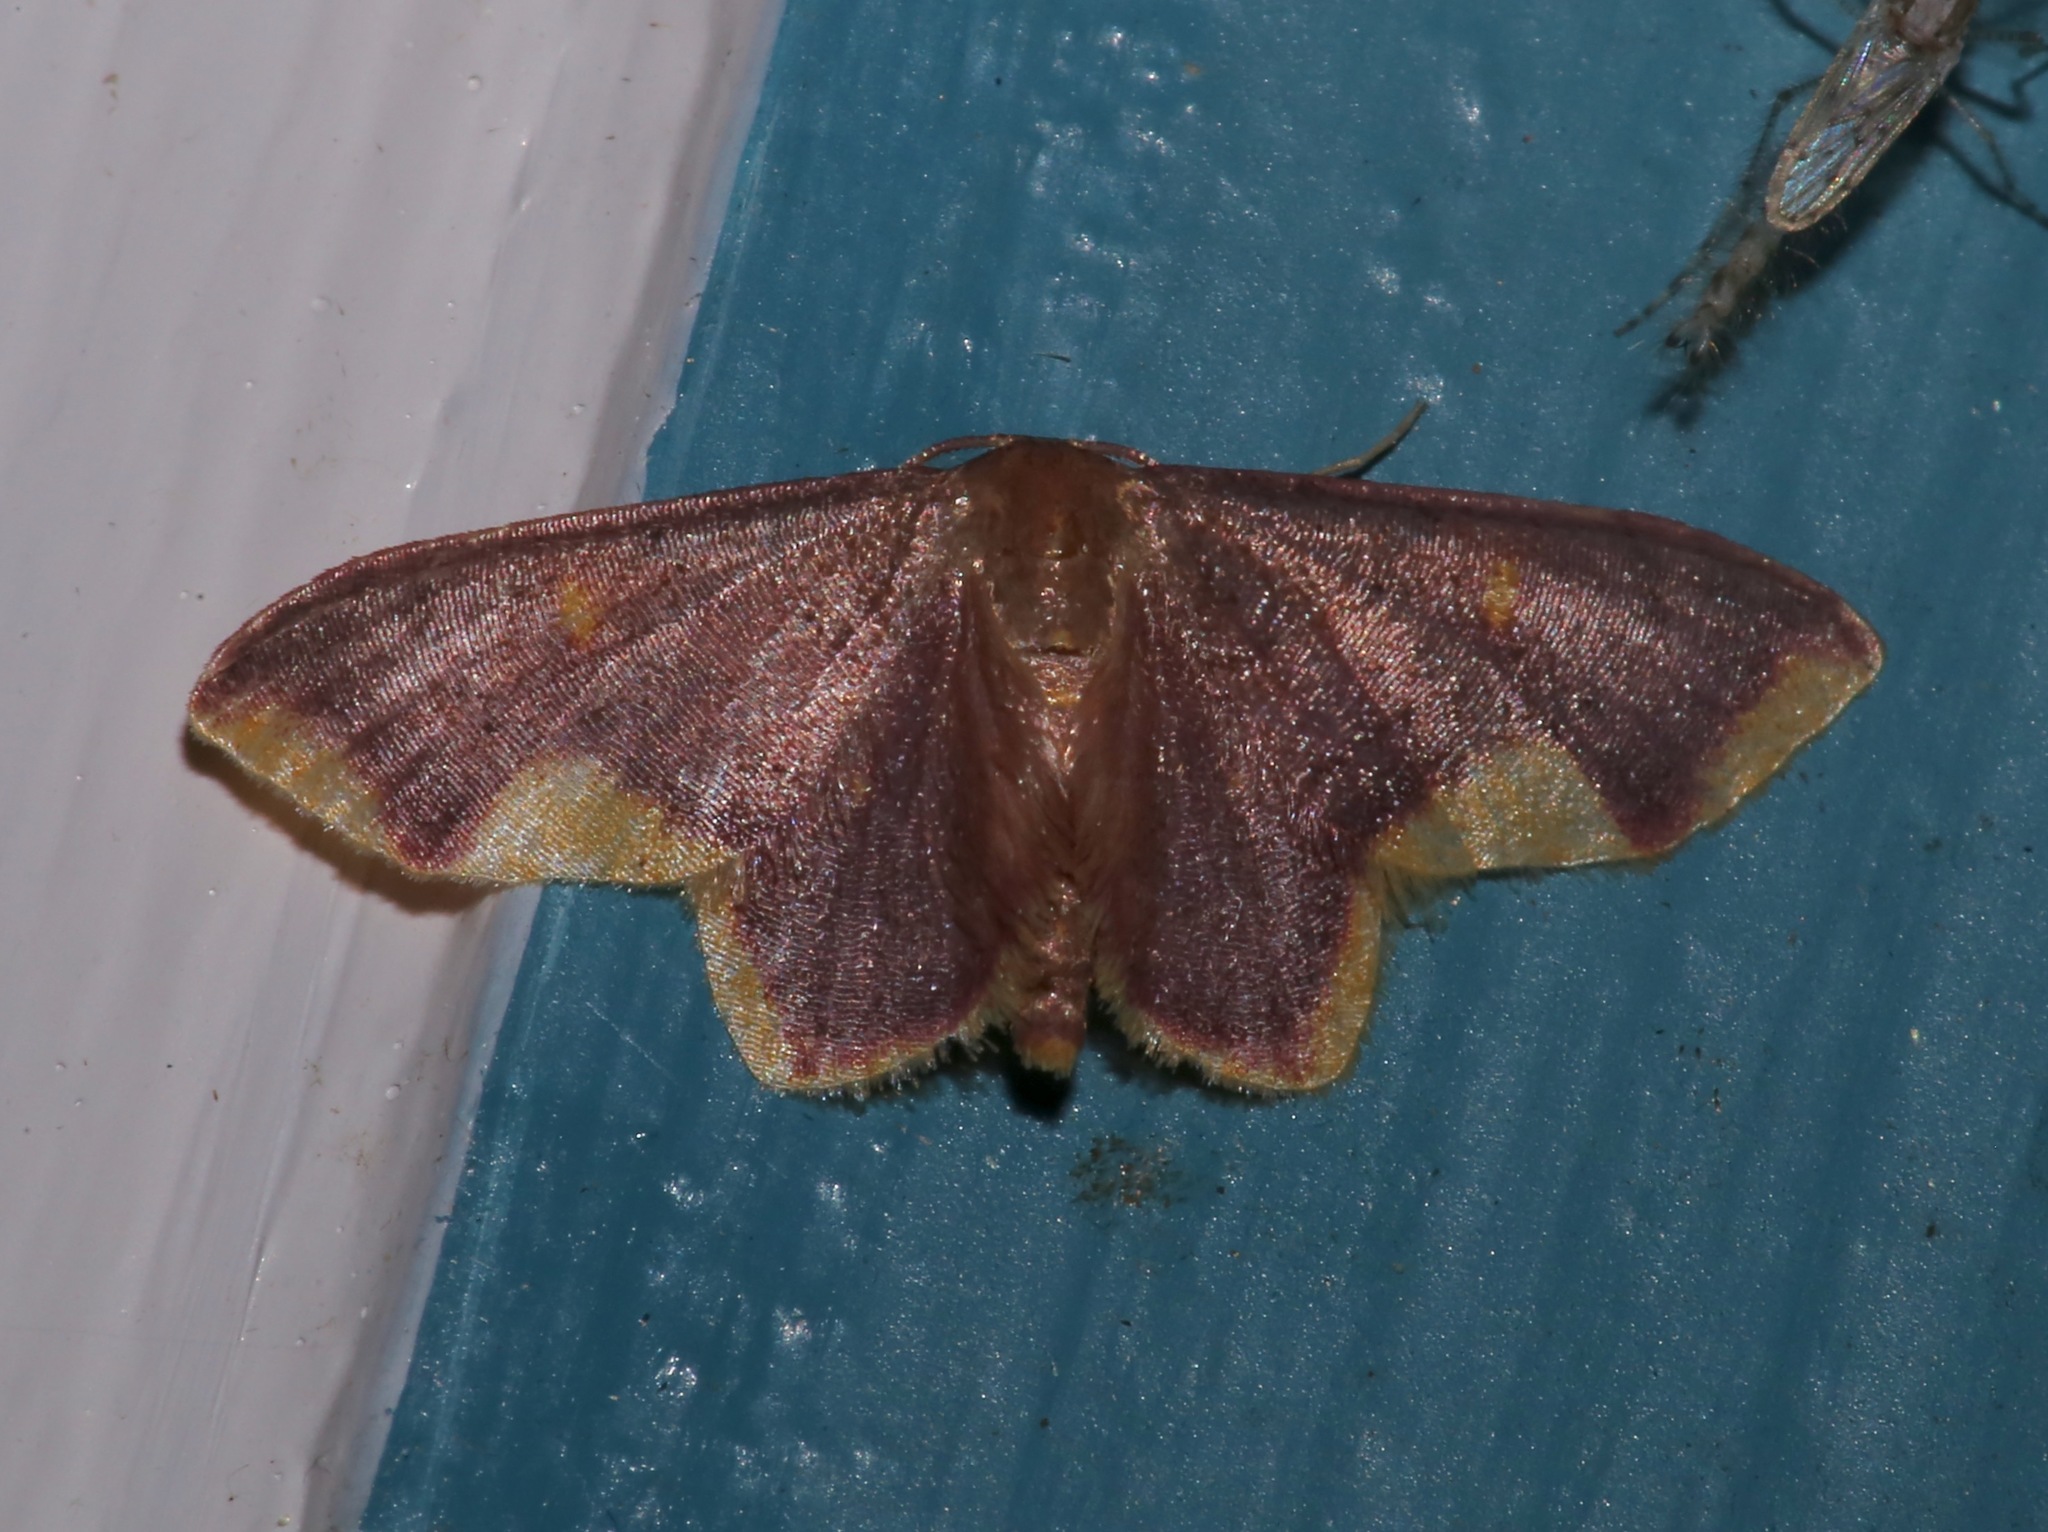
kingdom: Animalia
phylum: Arthropoda
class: Insecta
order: Lepidoptera
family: Geometridae
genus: Lophosis
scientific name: Lophosis labeculata
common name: Stained lophosis moth
